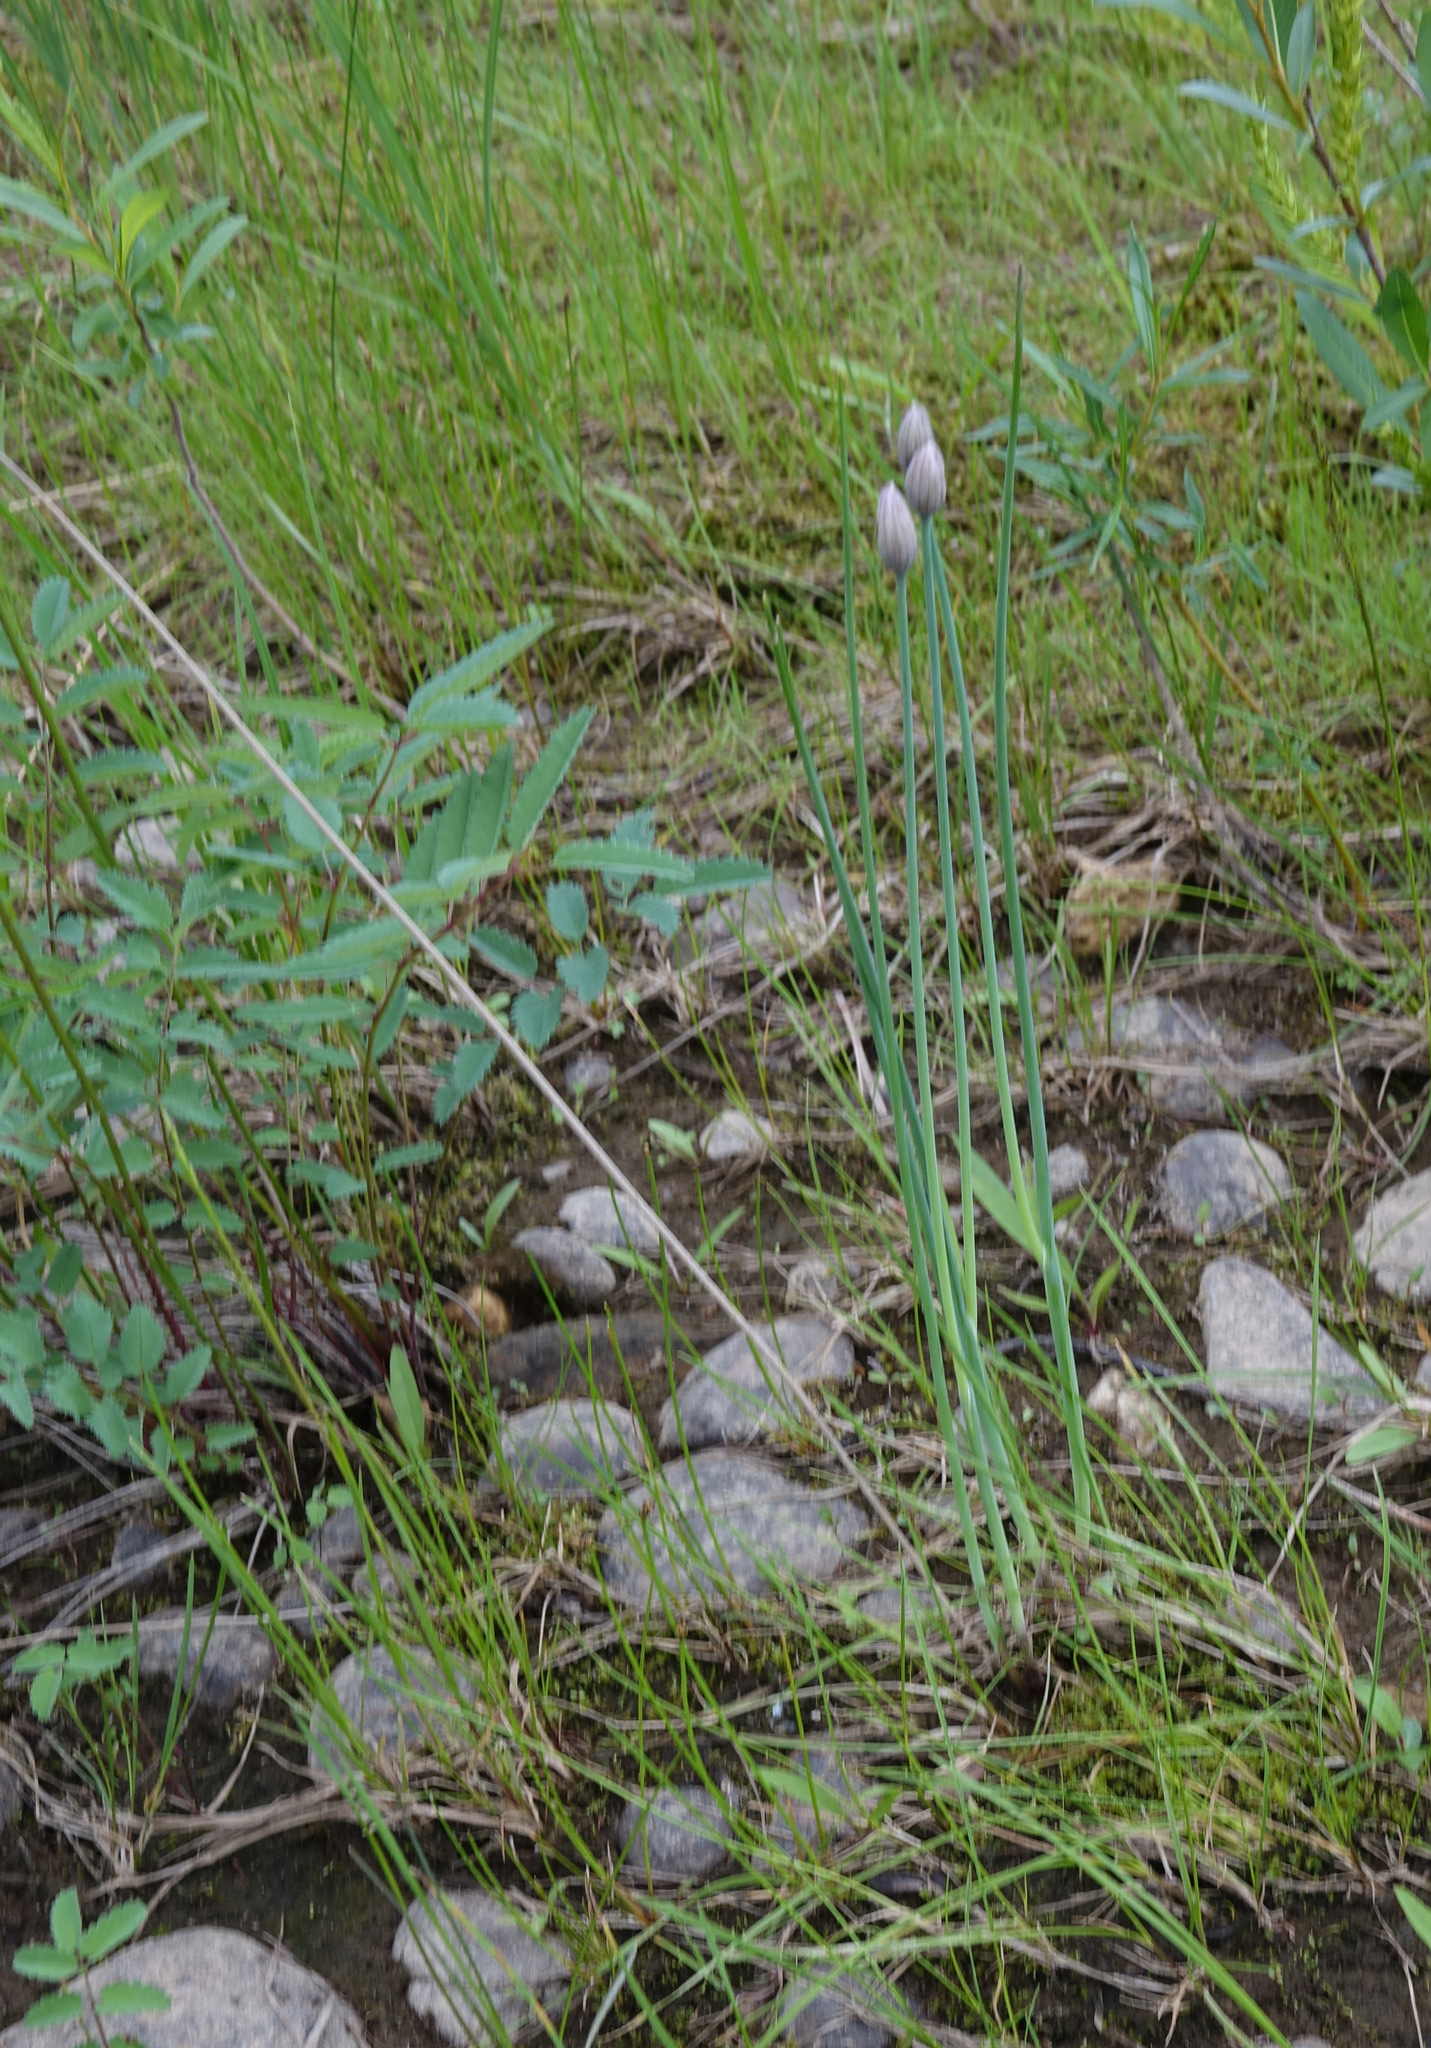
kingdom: Plantae
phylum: Tracheophyta
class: Liliopsida
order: Asparagales
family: Amaryllidaceae
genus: Allium
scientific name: Allium schoenoprasum
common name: Chives
